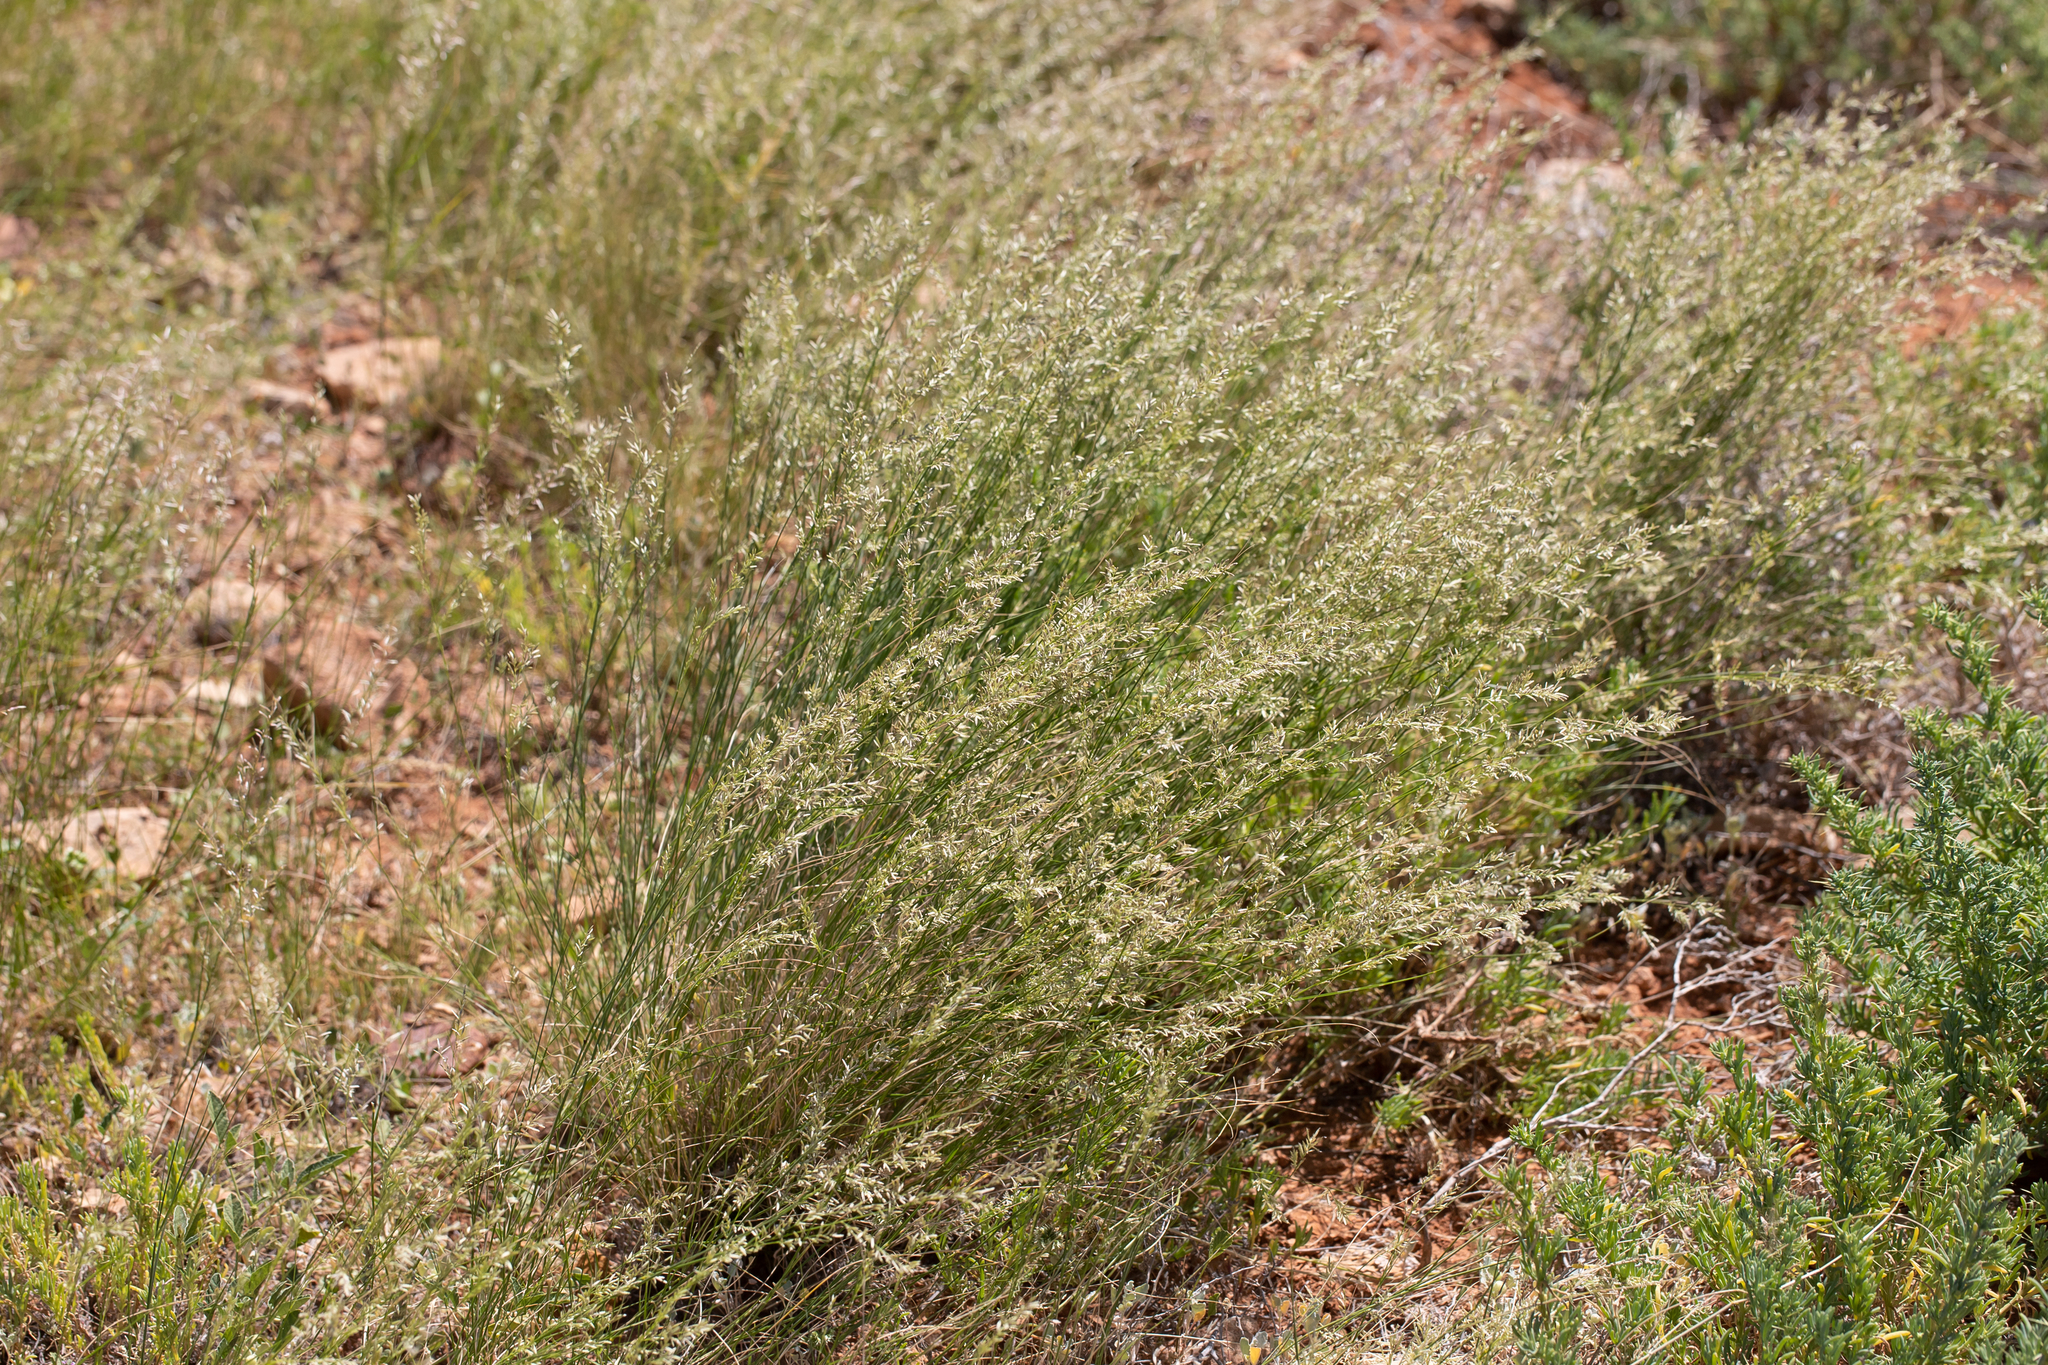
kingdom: Plantae
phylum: Tracheophyta
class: Liliopsida
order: Poales
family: Poaceae
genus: Eragrostis
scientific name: Eragrostis setifolia
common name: Bristleleaf lovegrass
